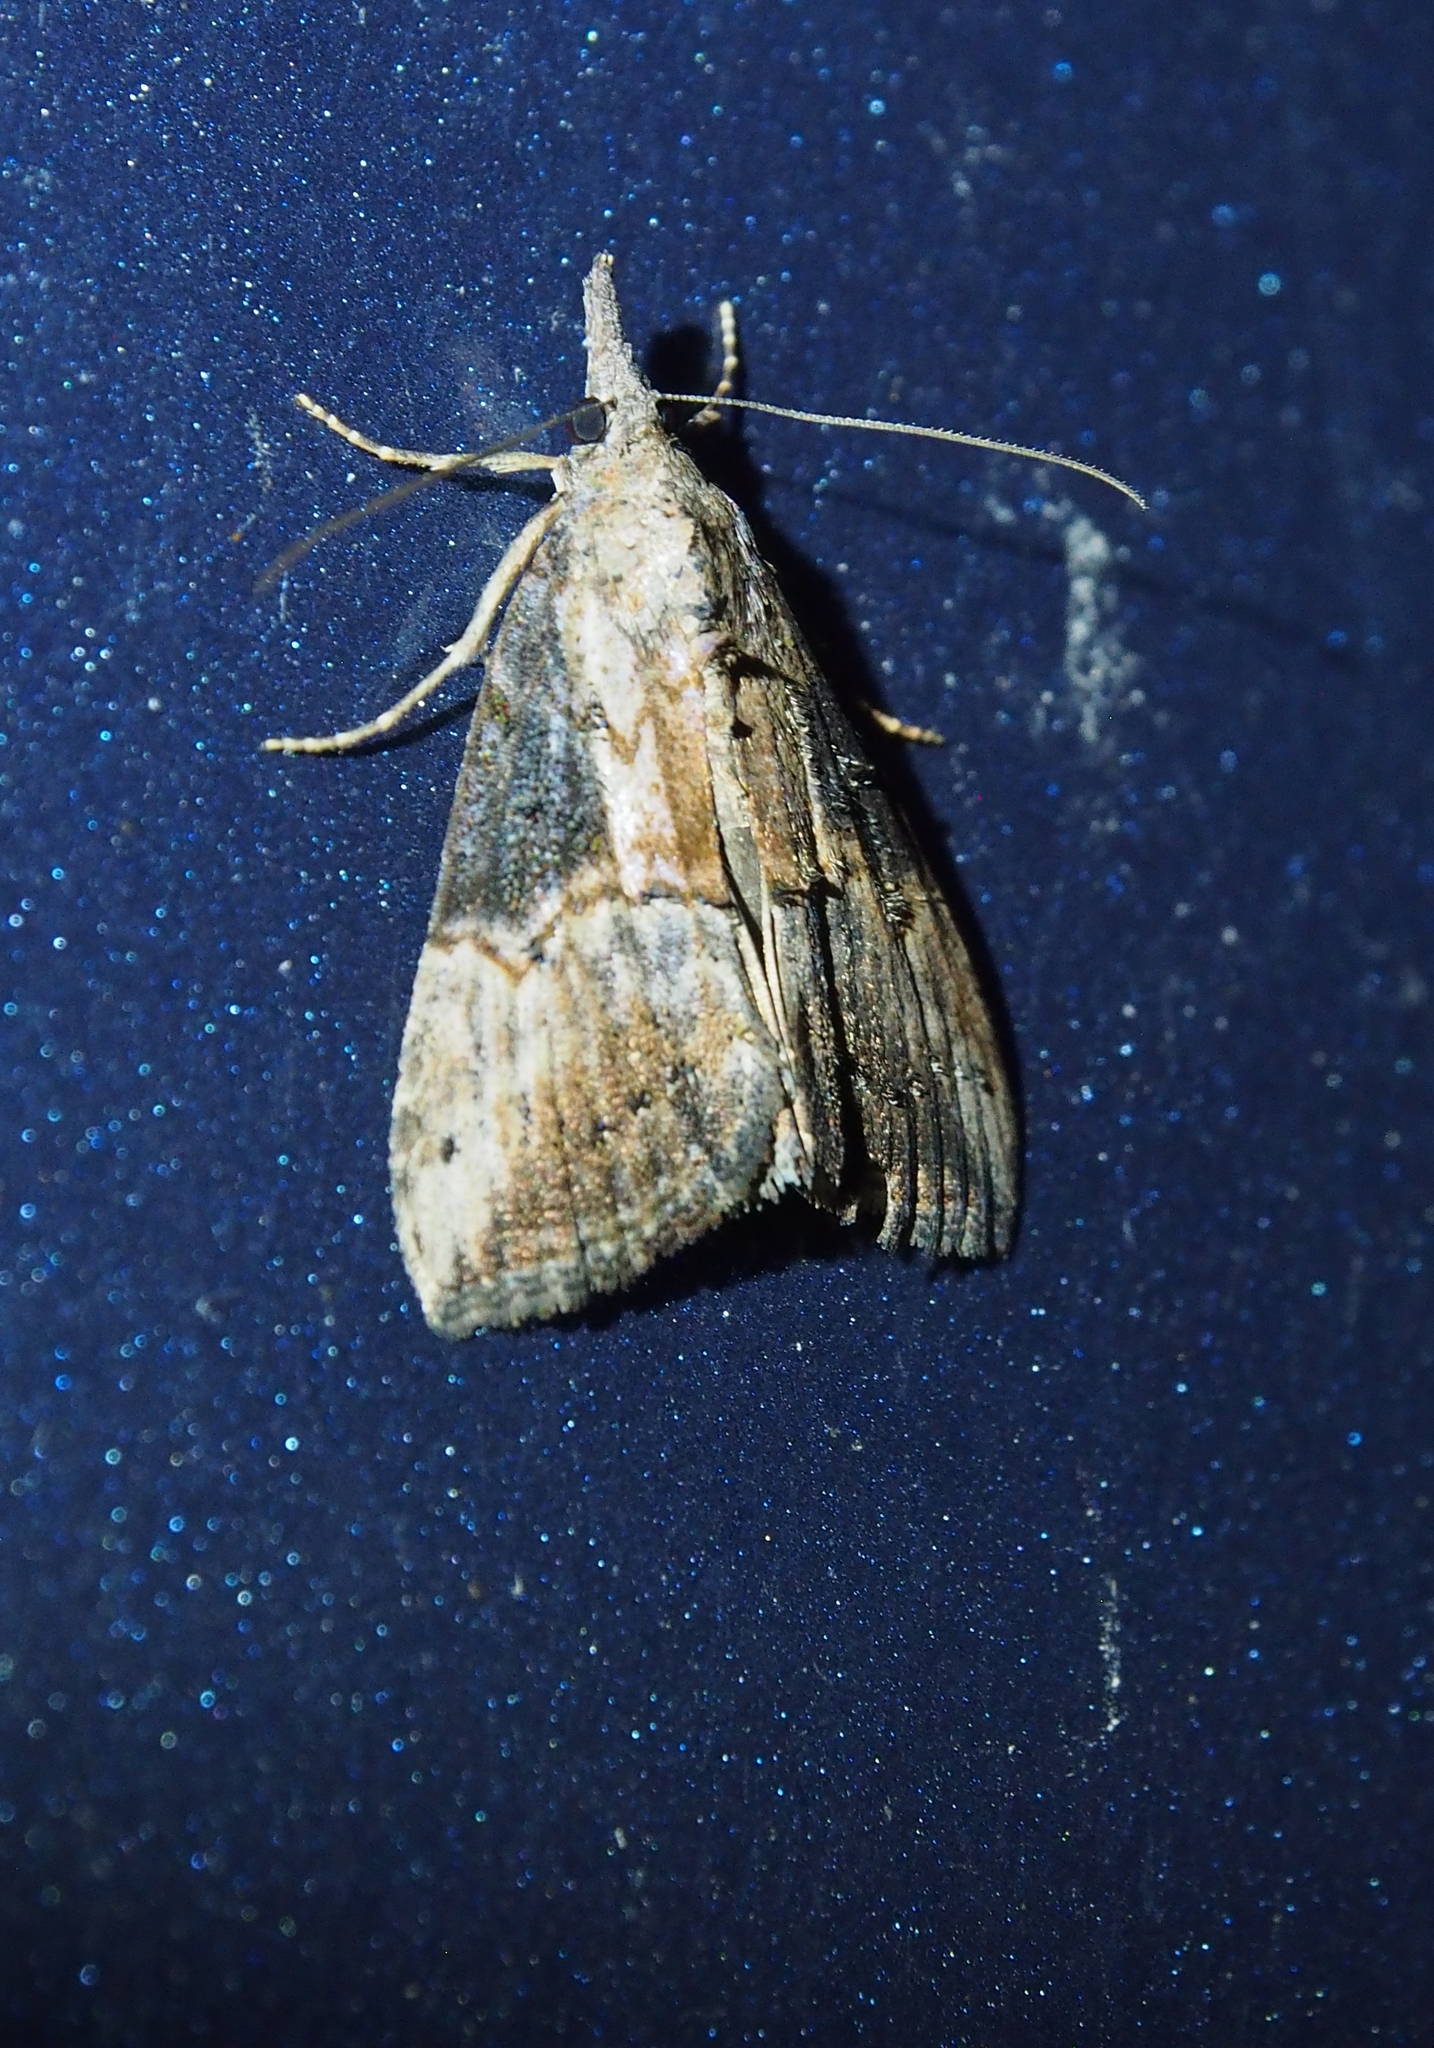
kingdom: Animalia
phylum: Arthropoda
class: Insecta
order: Lepidoptera
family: Erebidae
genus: Hypena
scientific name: Hypena scabra
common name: Green cloverworm
